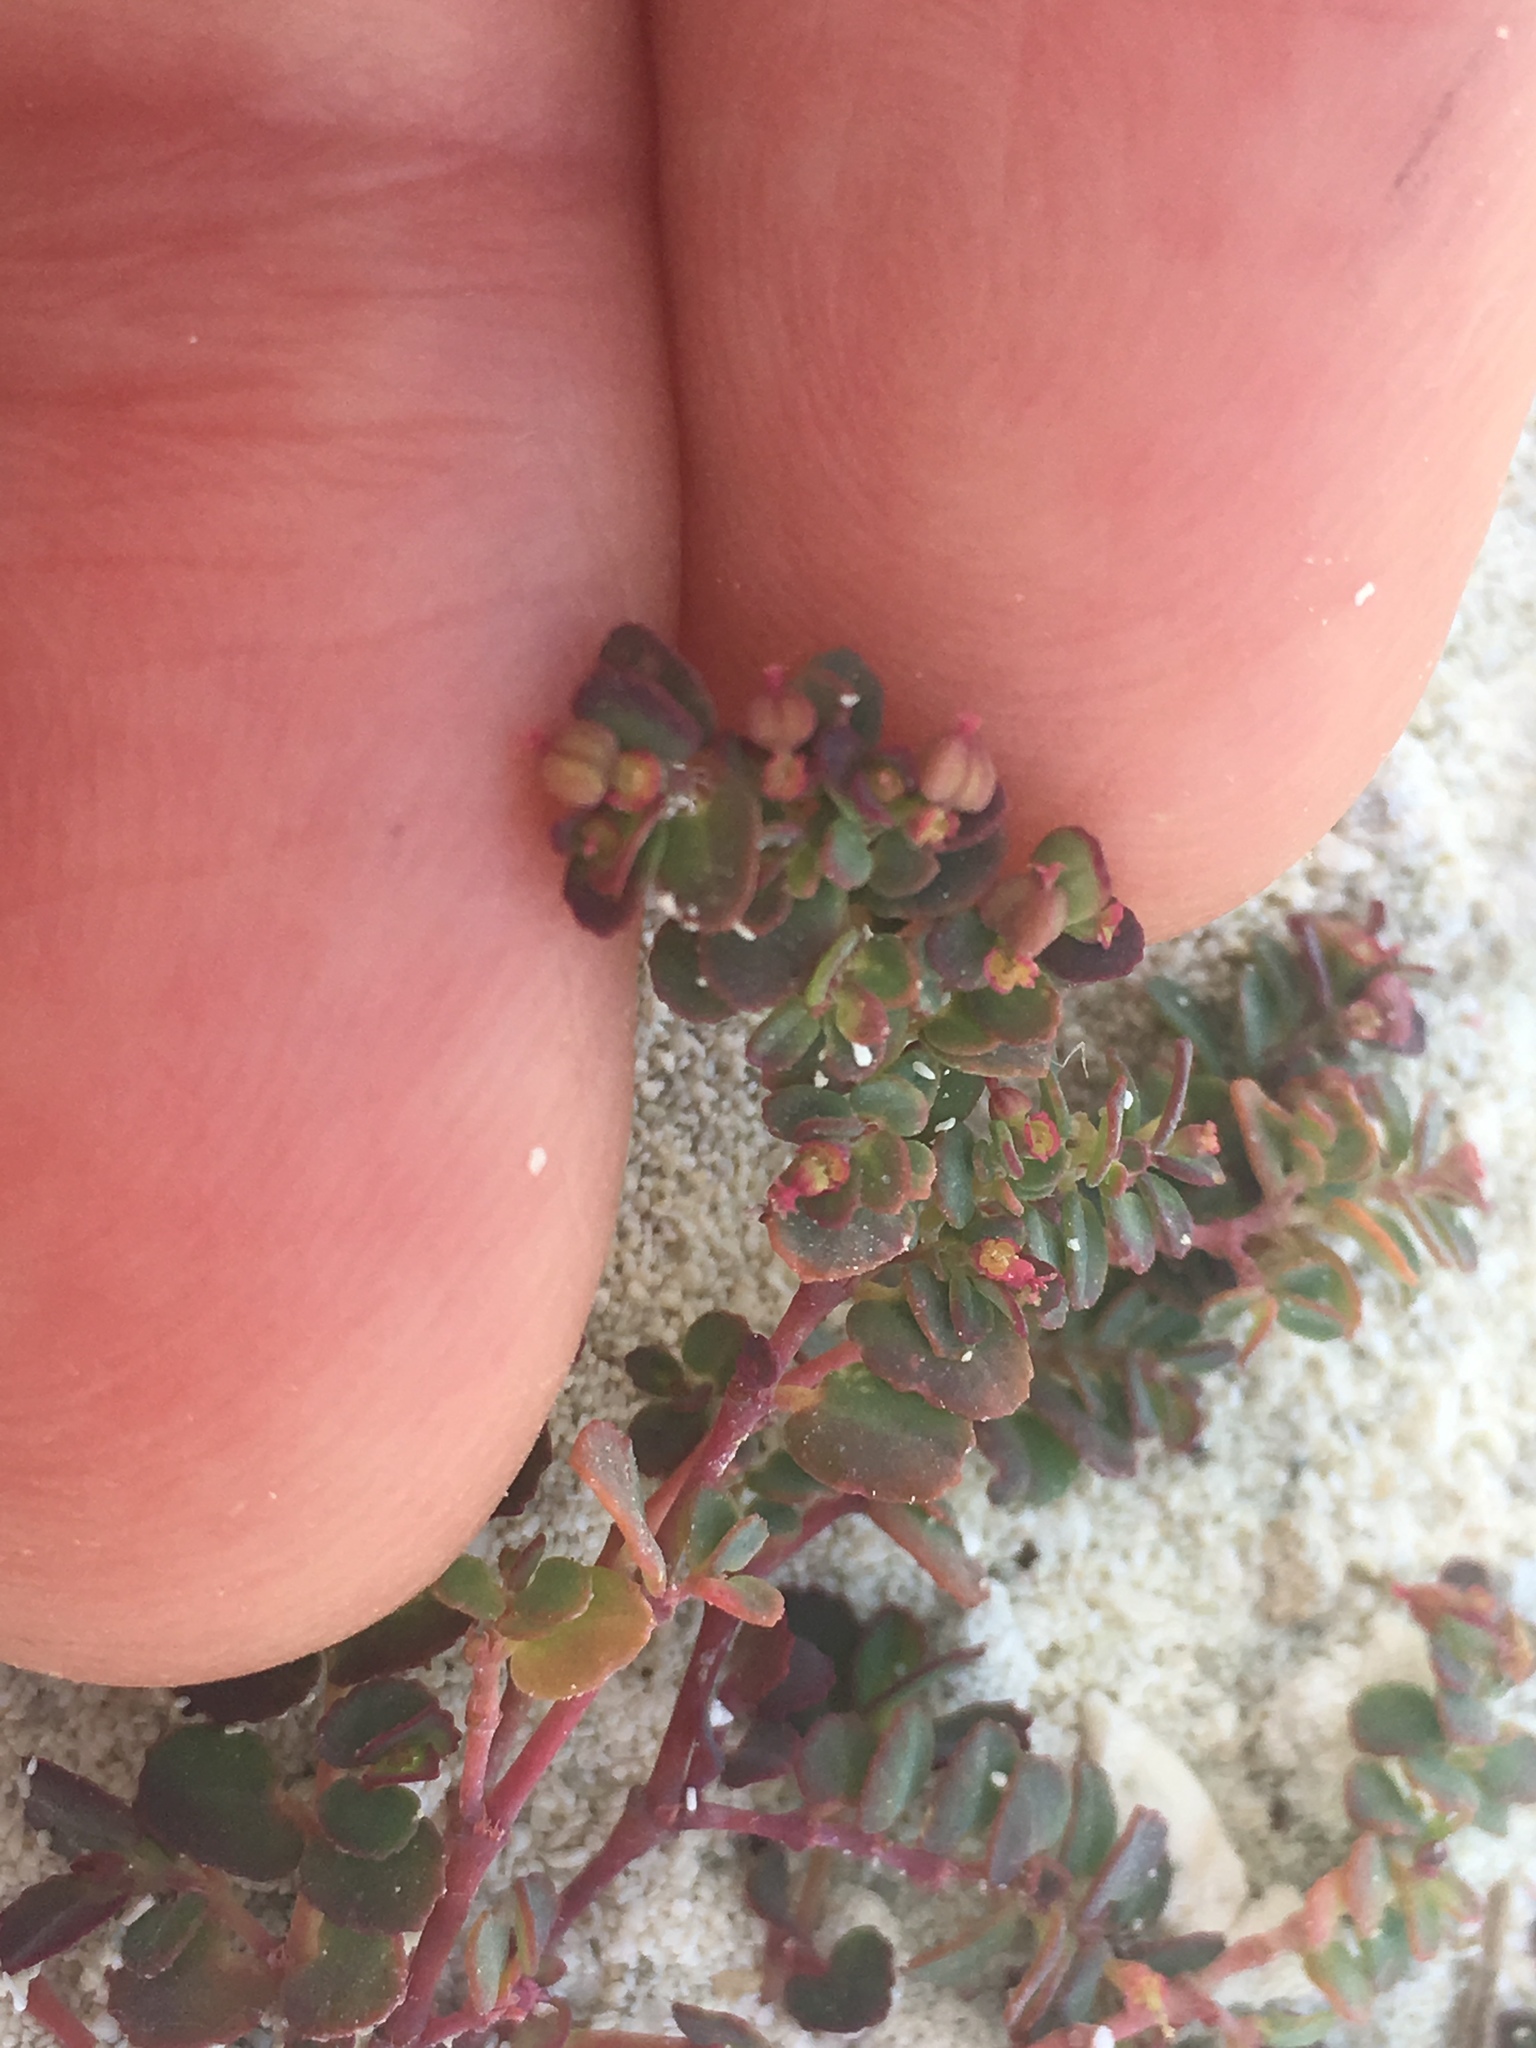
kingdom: Plantae
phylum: Tracheophyta
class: Magnoliopsida
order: Malpighiales
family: Euphorbiaceae
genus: Euphorbia
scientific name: Euphorbia cozumelensis
